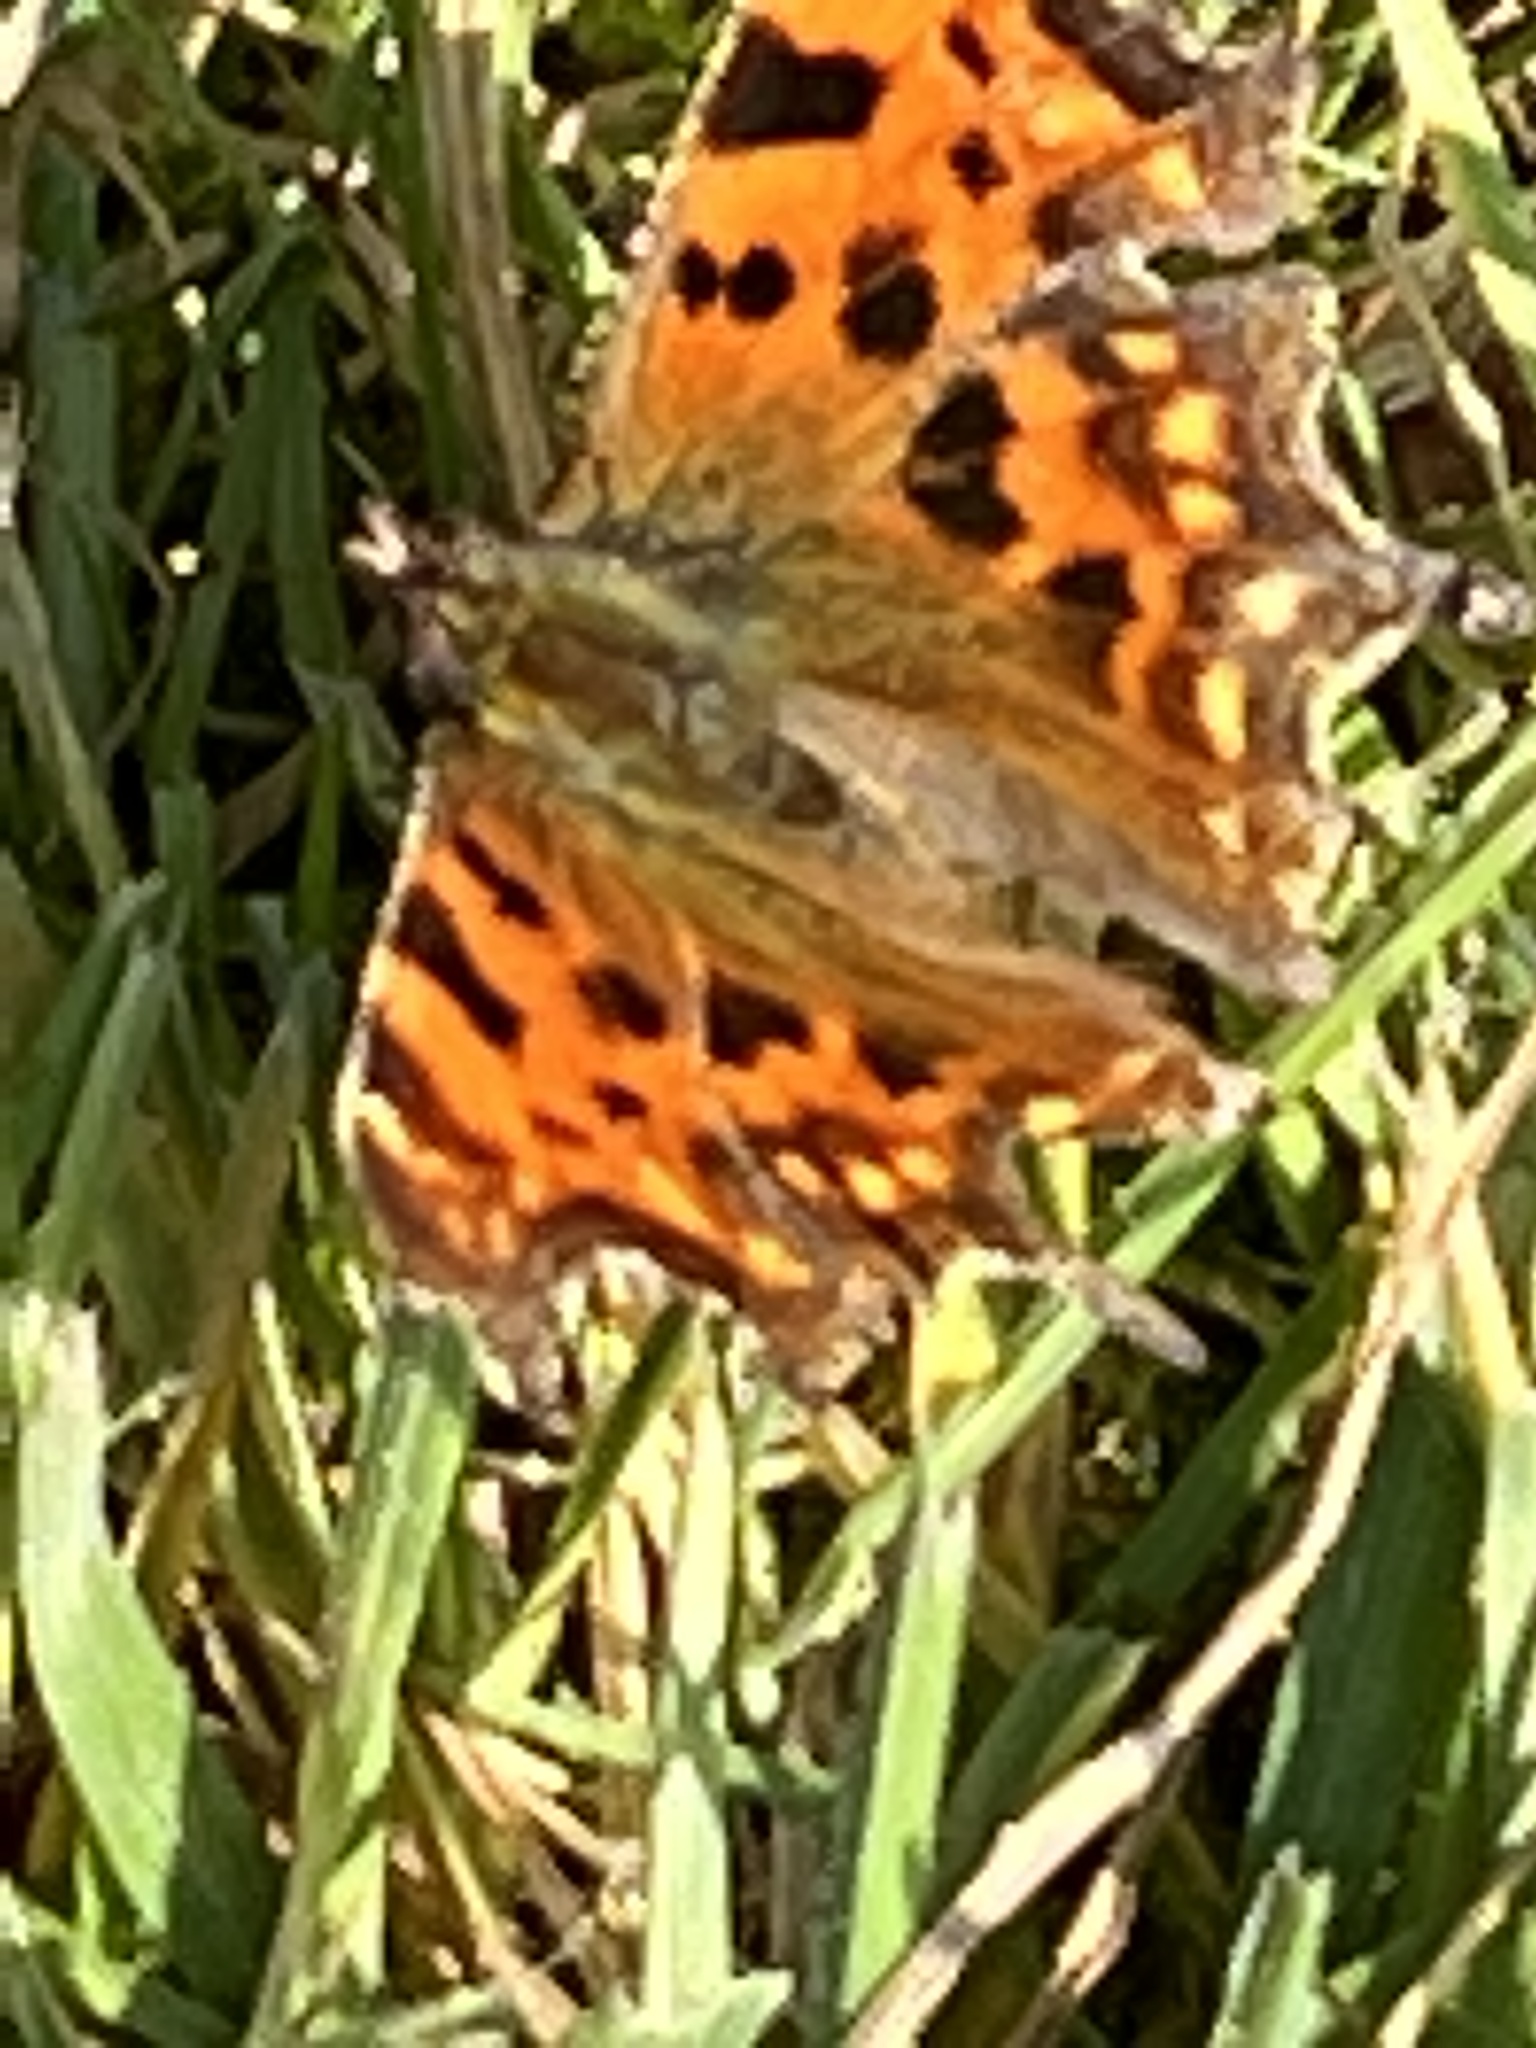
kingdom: Animalia
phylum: Arthropoda
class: Insecta
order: Lepidoptera
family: Nymphalidae
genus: Polygonia
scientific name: Polygonia c-album
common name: Comma
